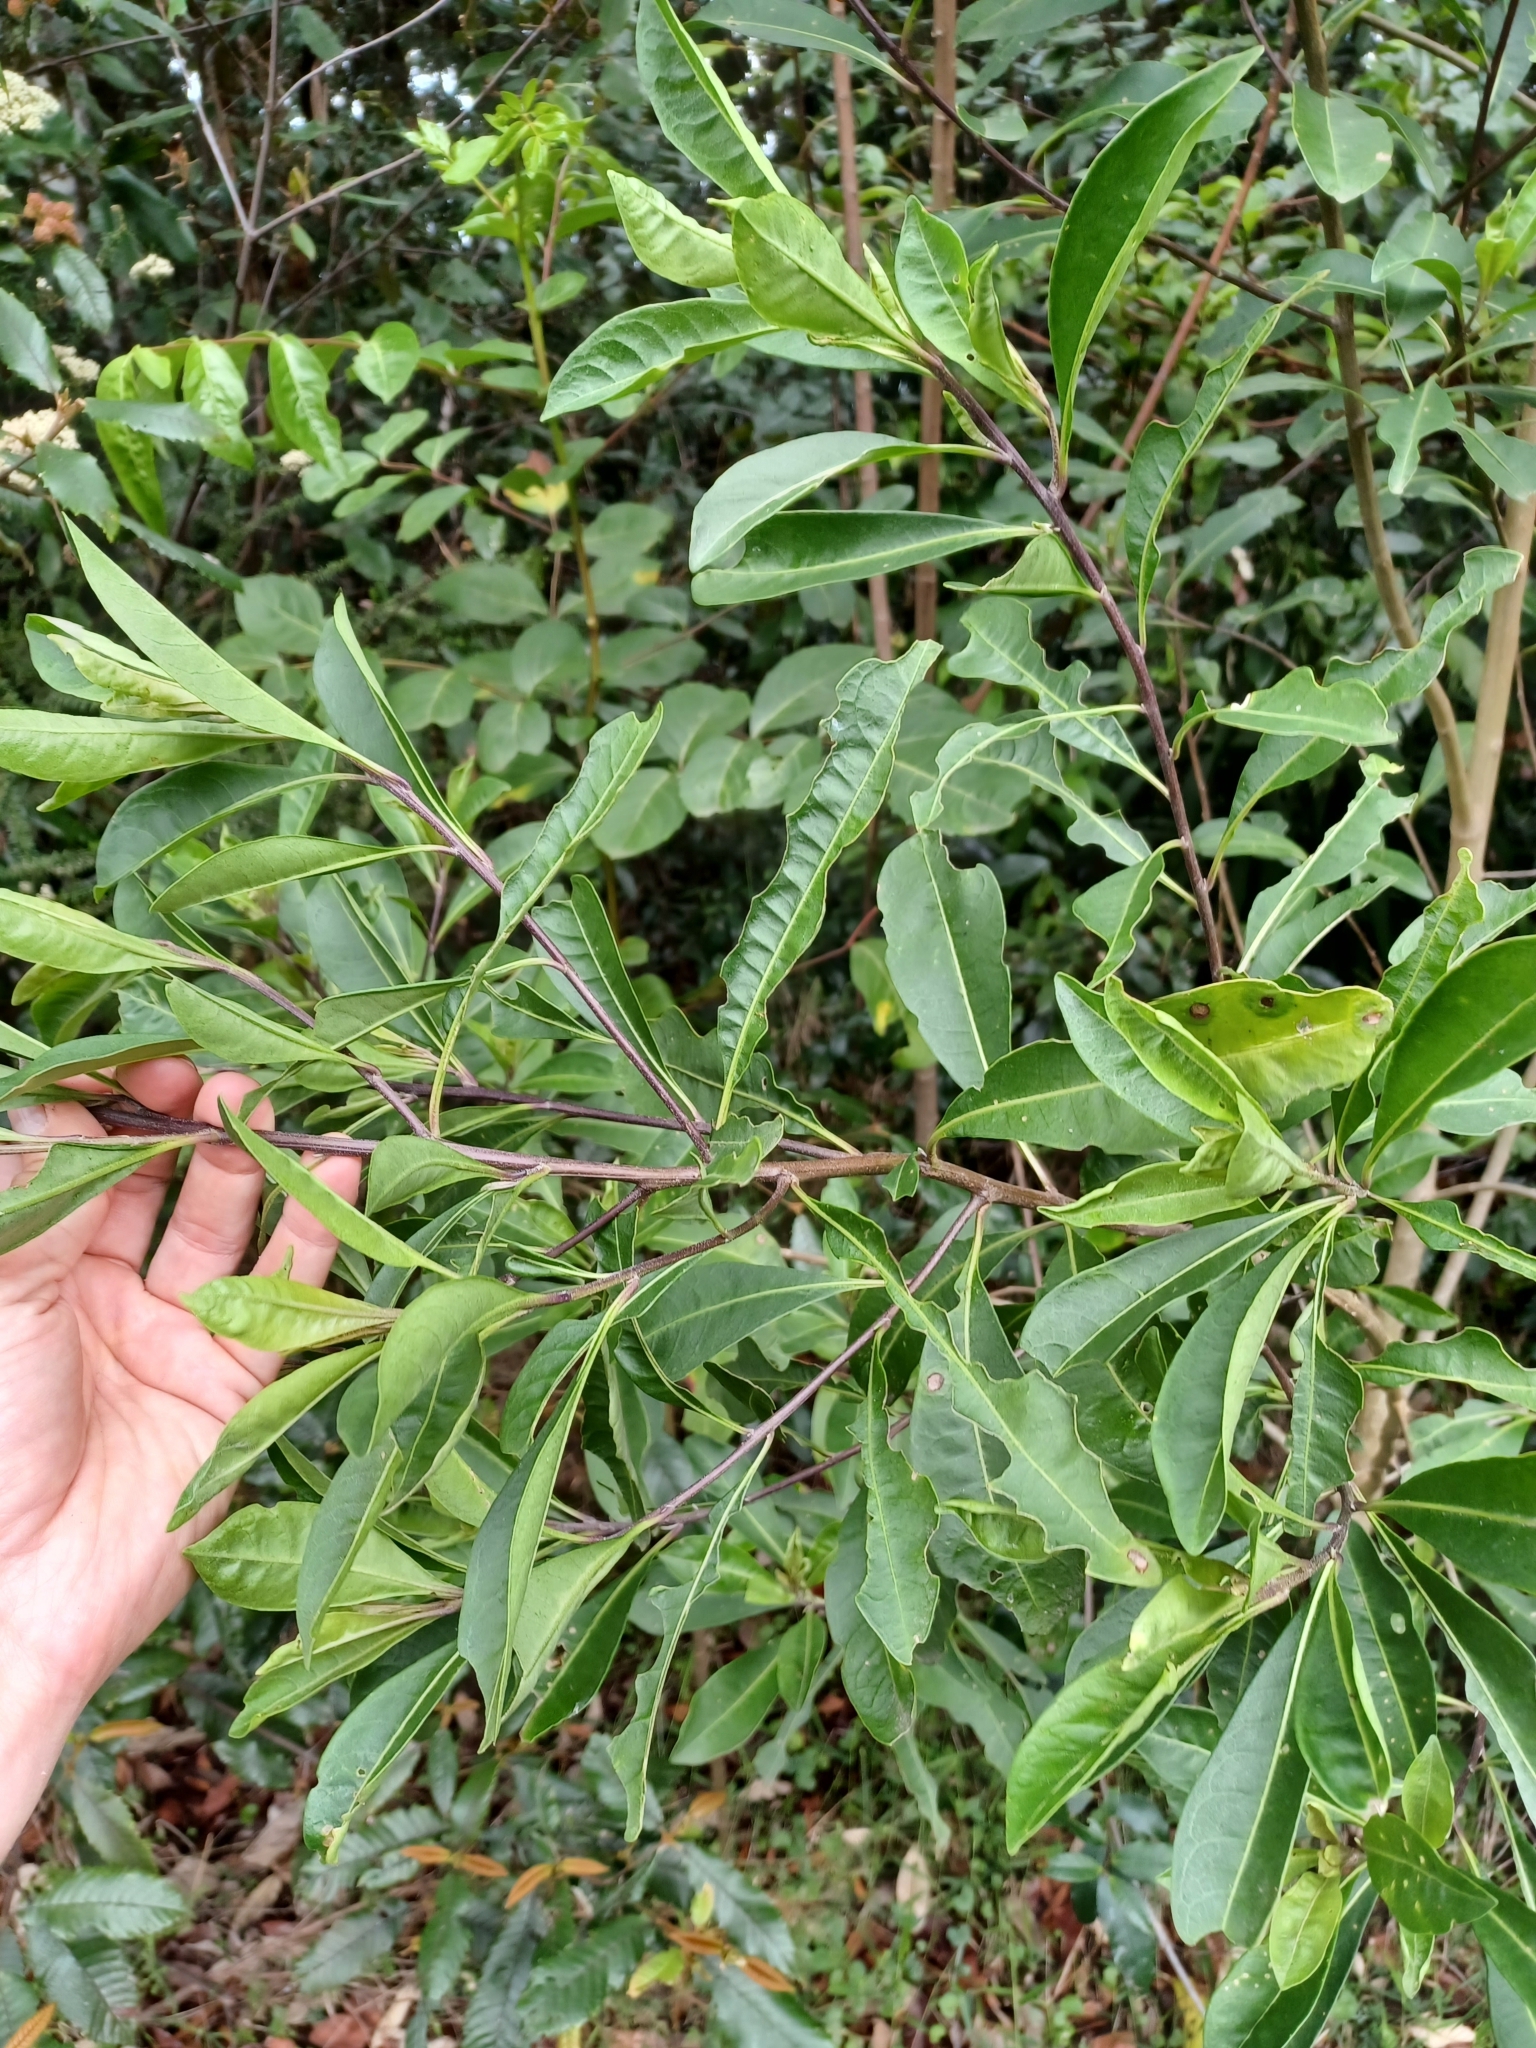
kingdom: Plantae
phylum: Tracheophyta
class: Magnoliopsida
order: Solanales
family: Solanaceae
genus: Duboisia
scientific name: Duboisia myoporoides
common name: Corkwoodtree
